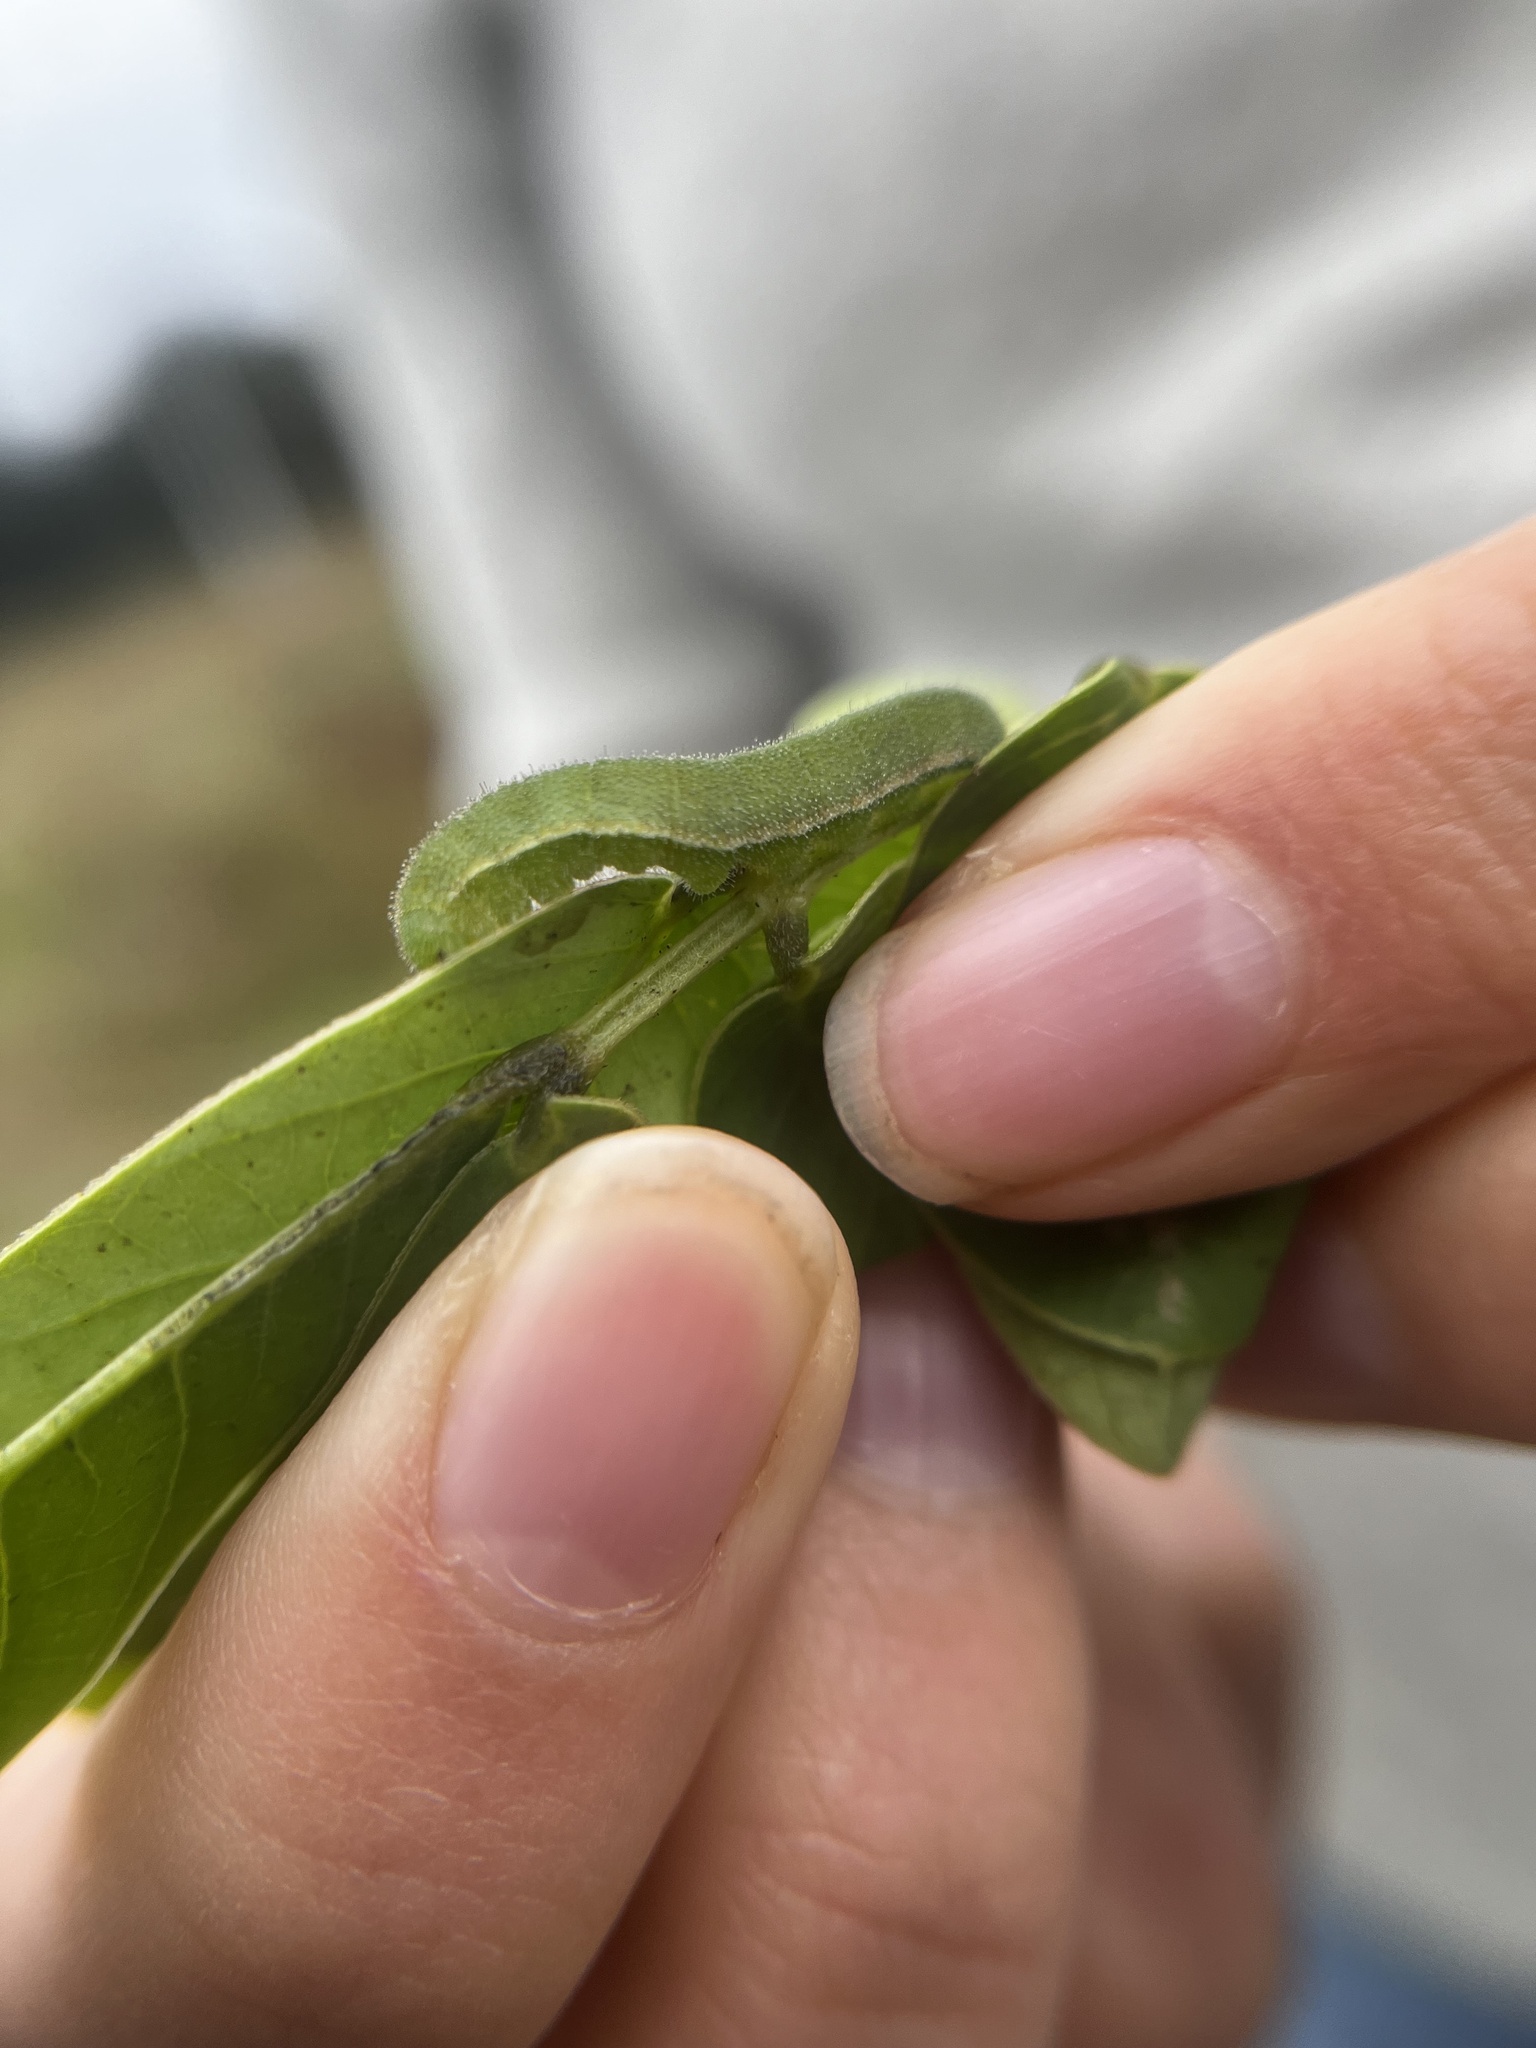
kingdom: Animalia
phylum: Arthropoda
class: Insecta
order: Lepidoptera
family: Pieridae
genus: Abaeis
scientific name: Abaeis nicippe
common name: Sleepy orange
